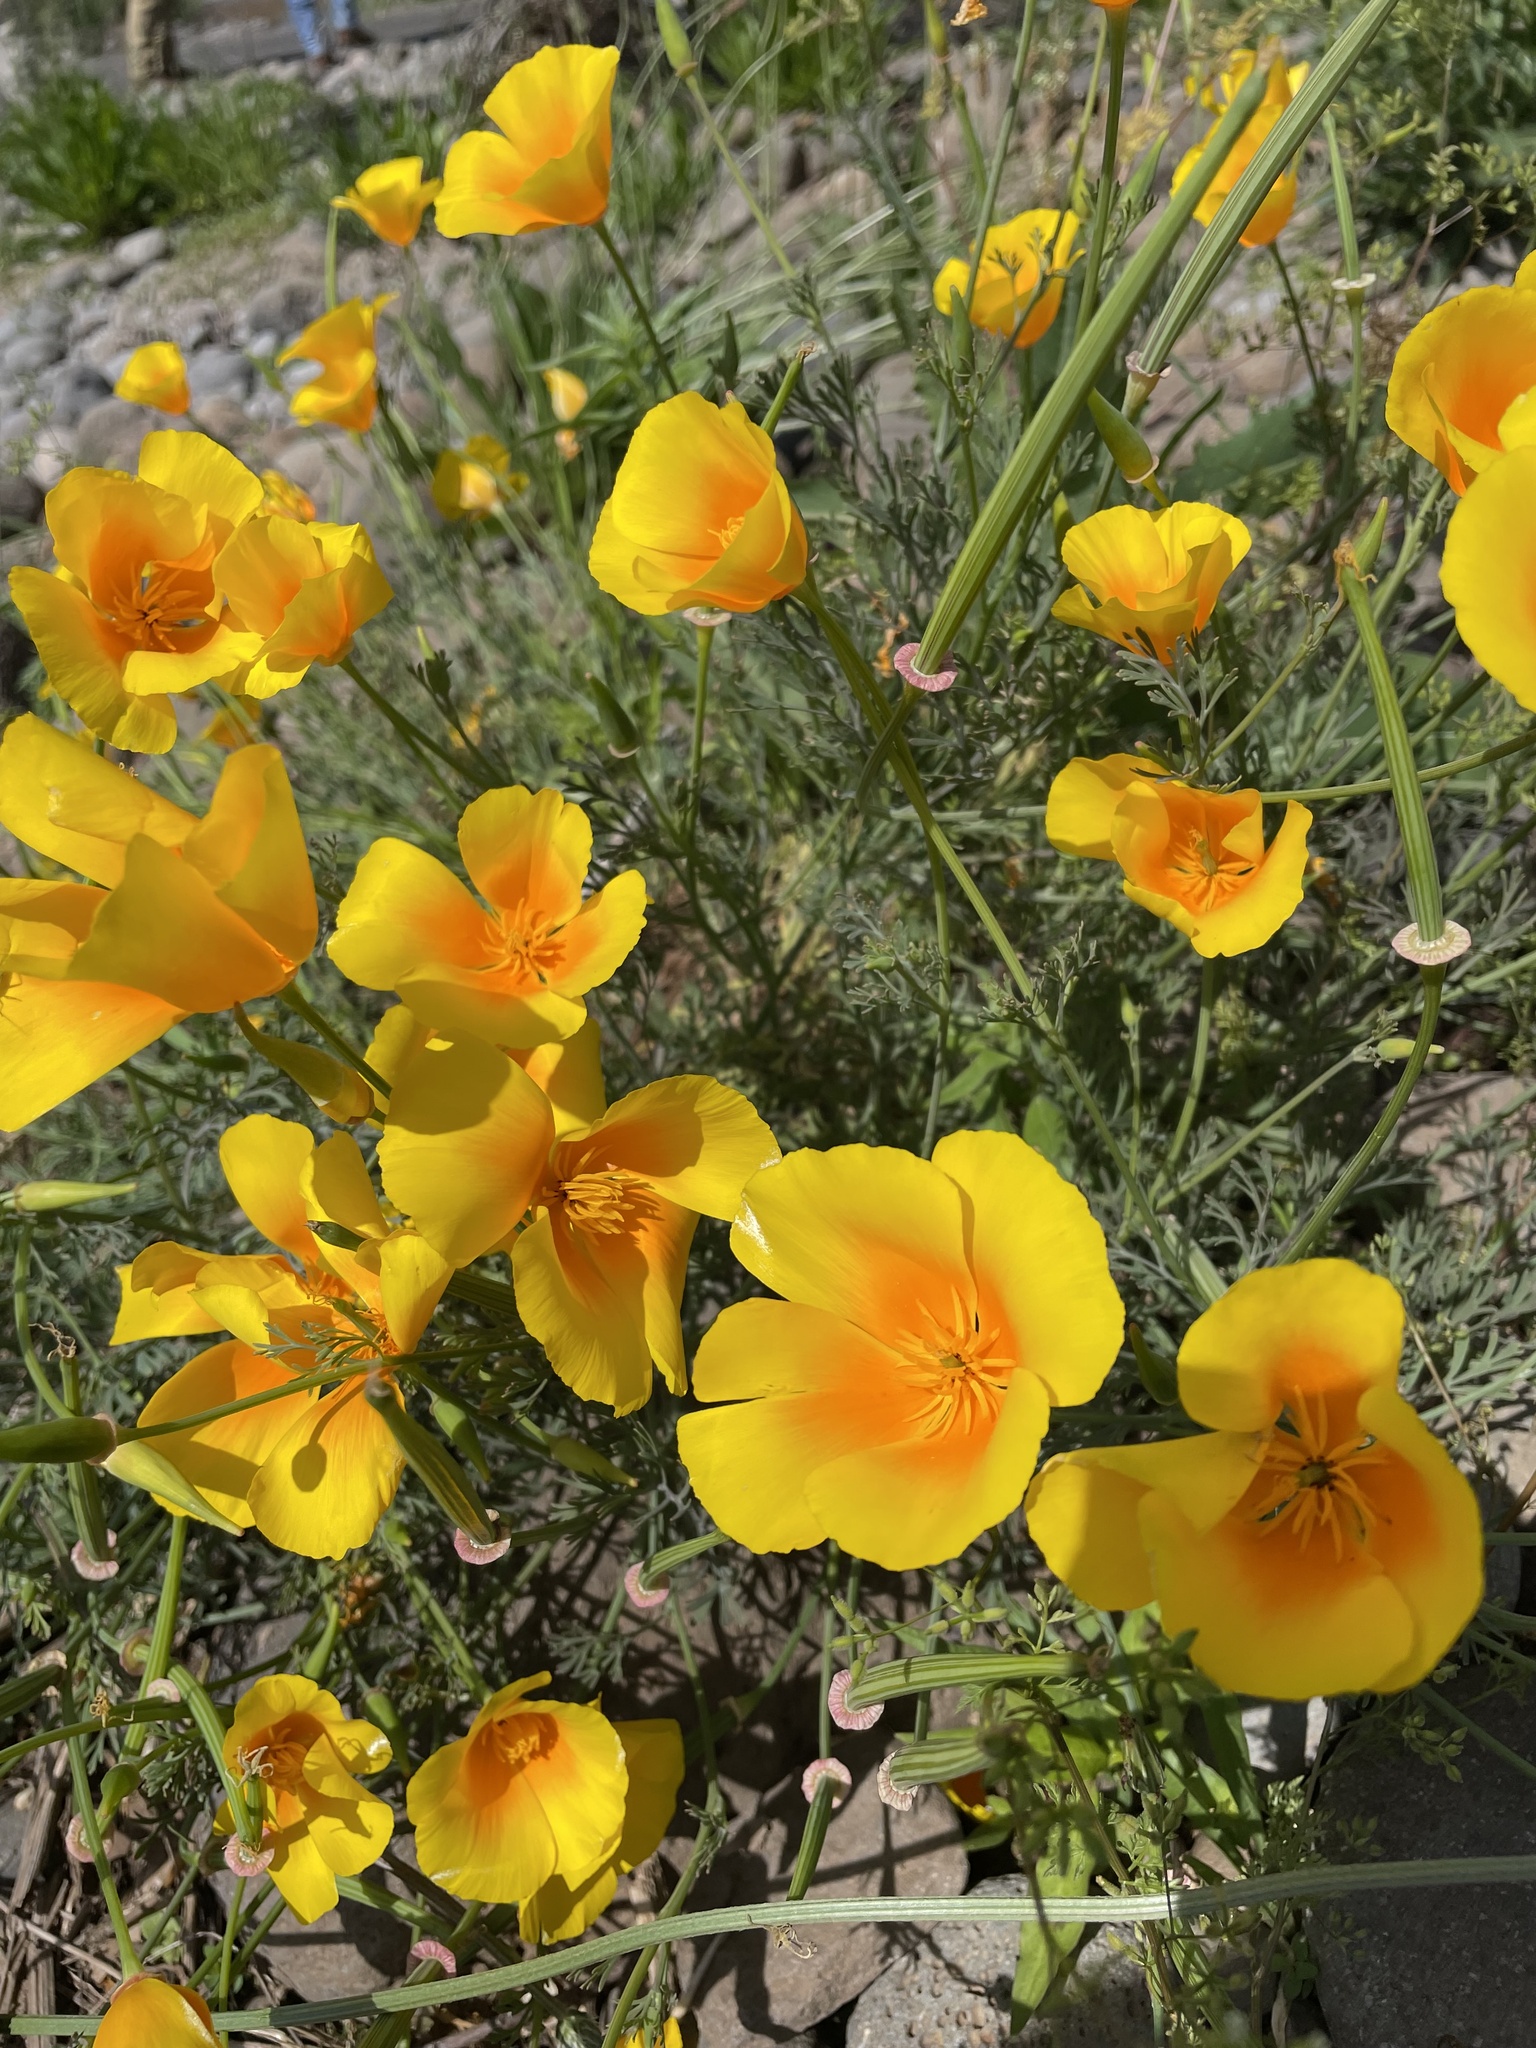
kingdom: Plantae
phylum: Tracheophyta
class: Magnoliopsida
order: Ranunculales
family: Papaveraceae
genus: Eschscholzia
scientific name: Eschscholzia californica
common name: California poppy
